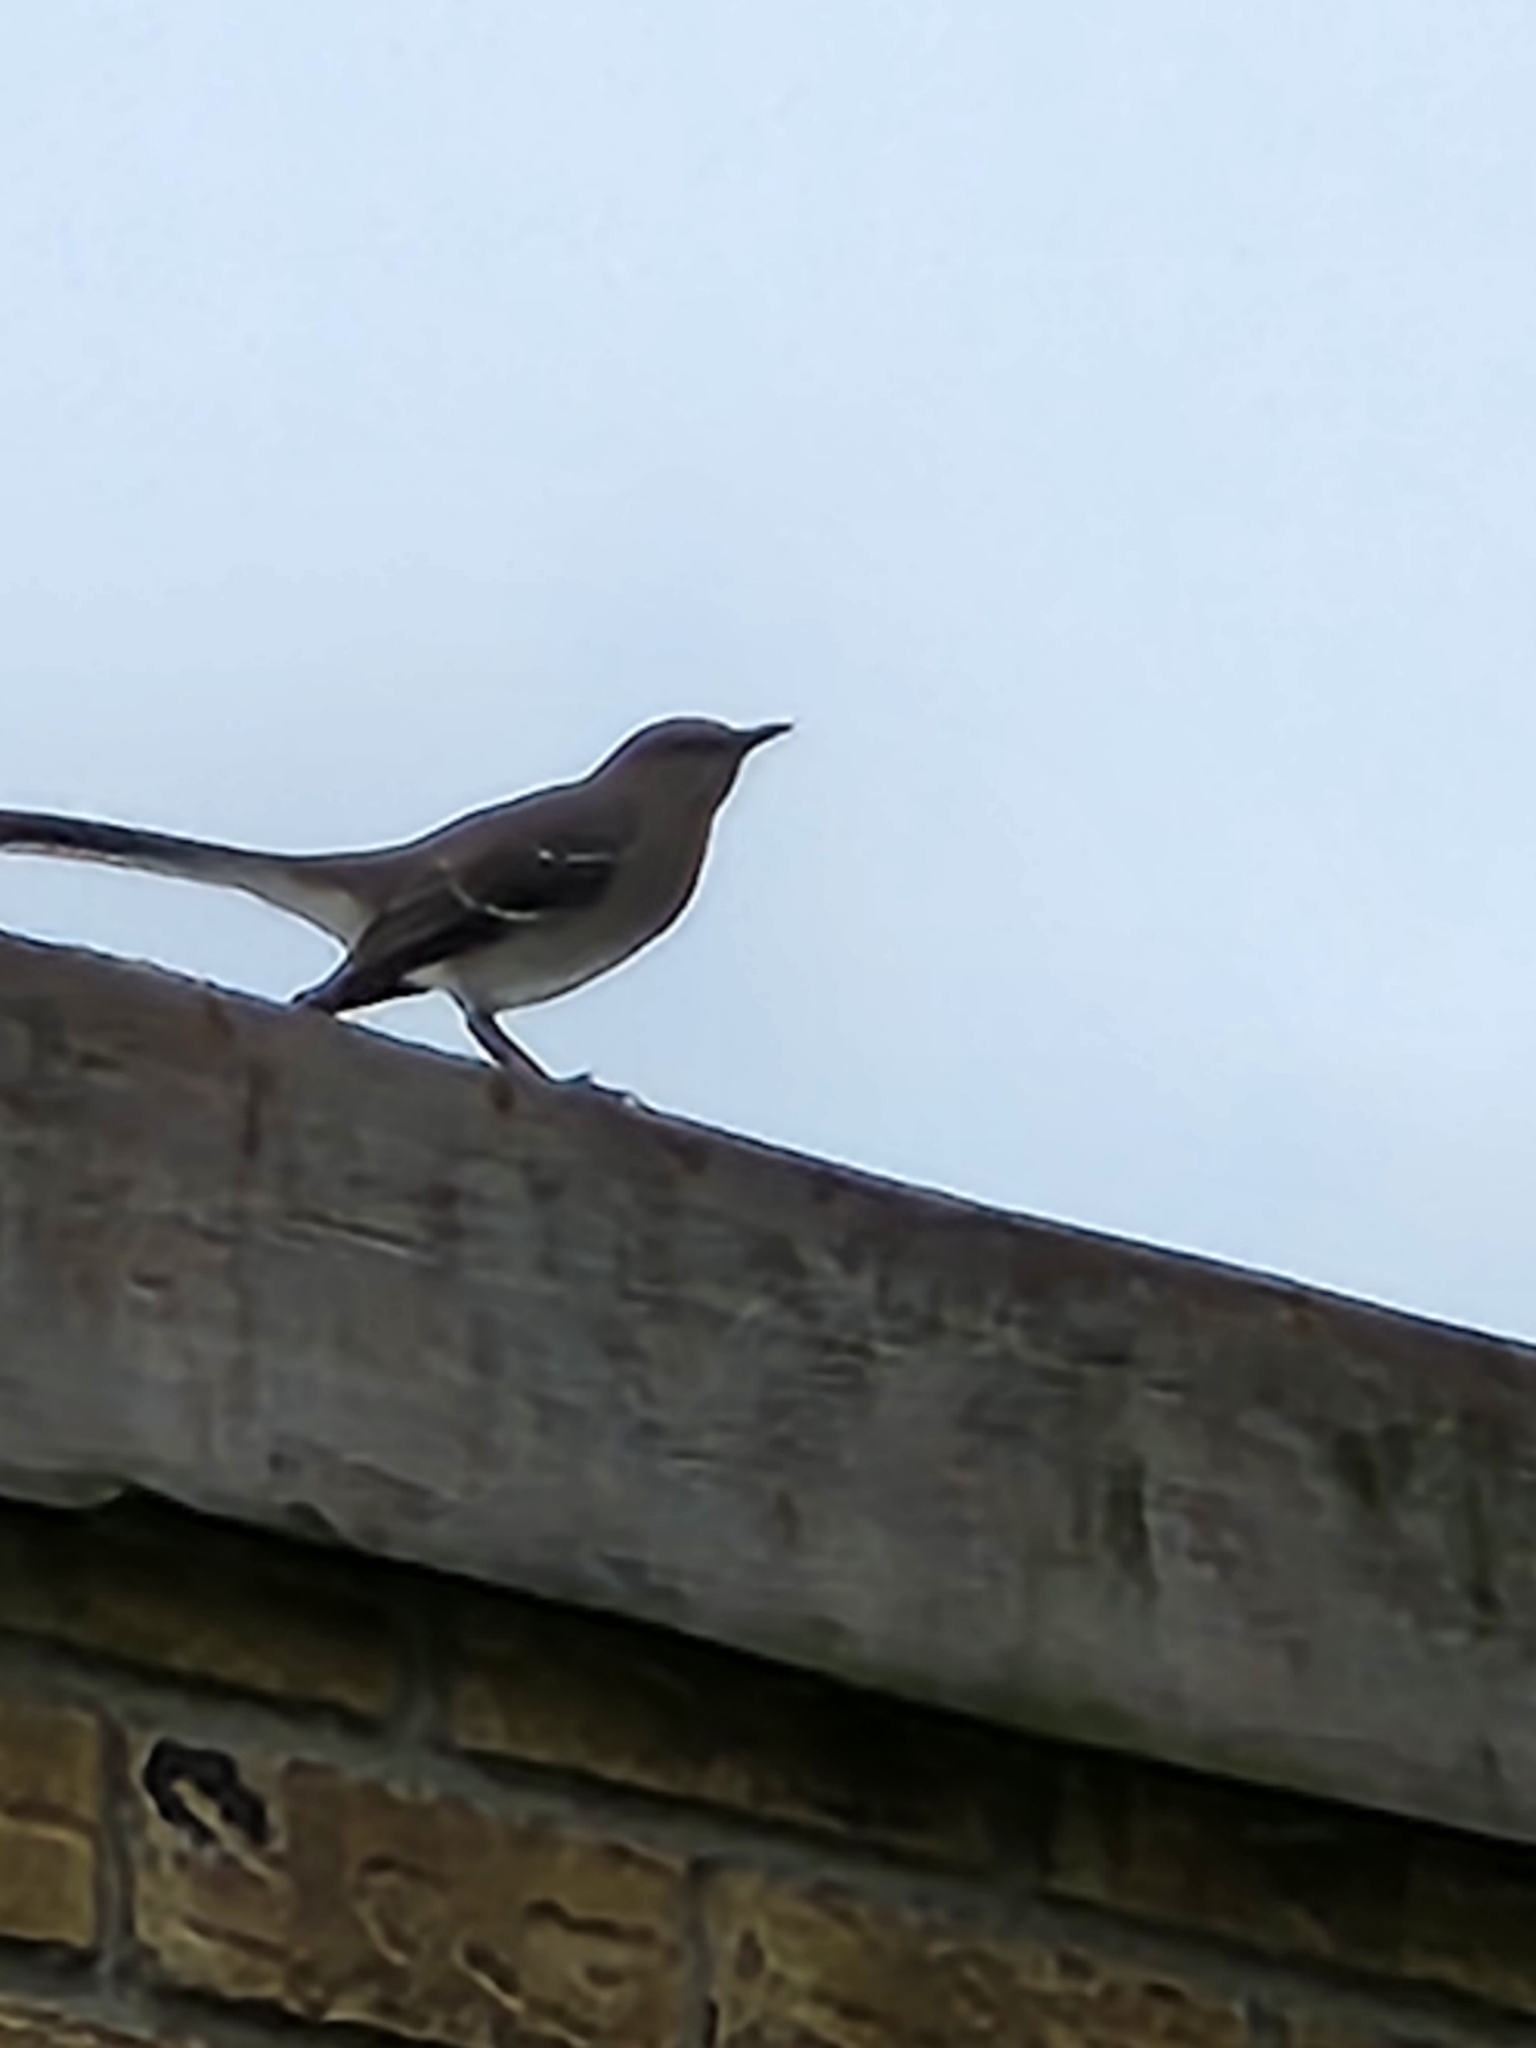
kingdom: Animalia
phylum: Chordata
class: Aves
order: Passeriformes
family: Mimidae
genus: Mimus
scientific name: Mimus polyglottos
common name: Northern mockingbird
